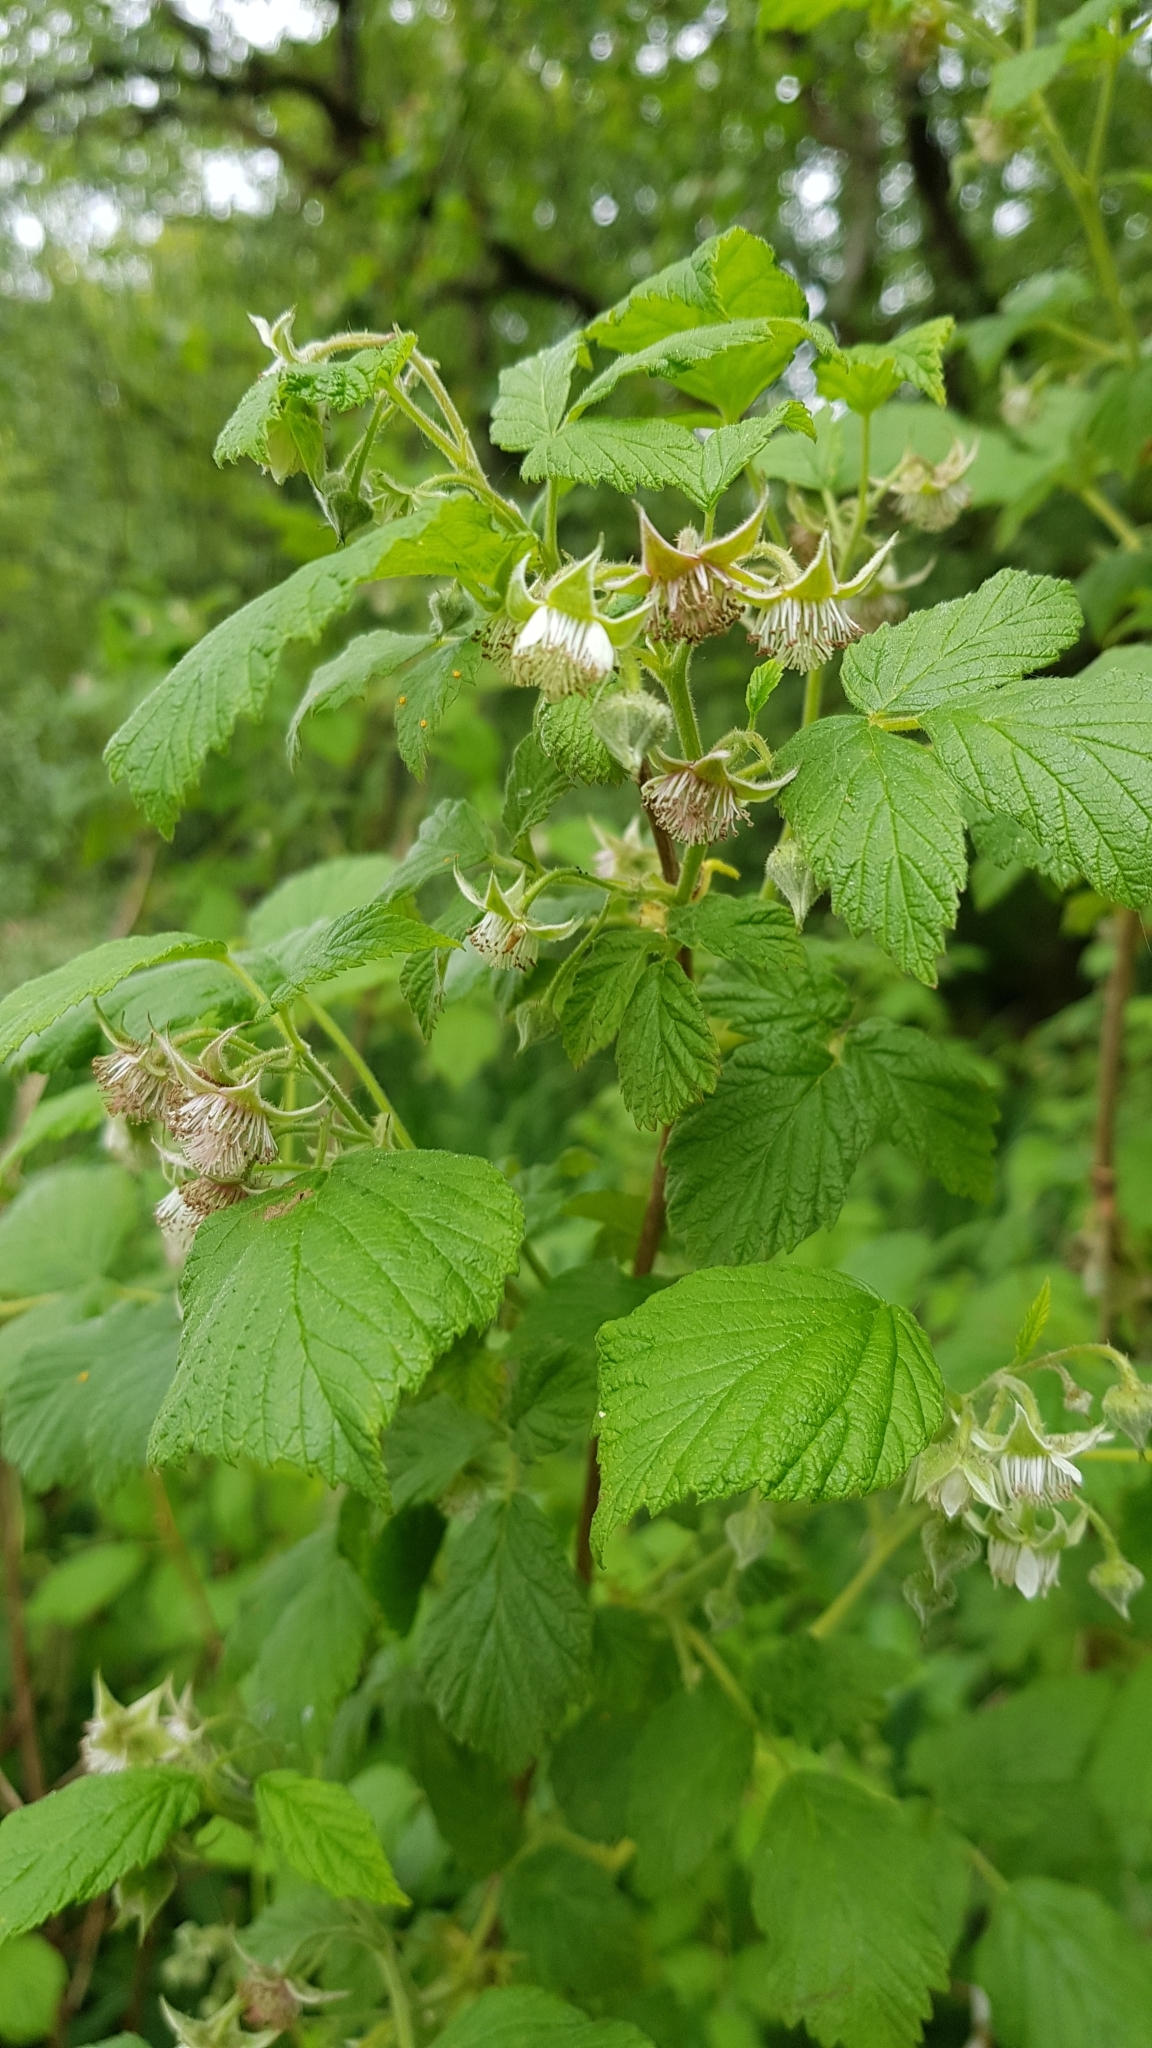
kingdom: Plantae
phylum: Tracheophyta
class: Magnoliopsida
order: Rosales
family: Rosaceae
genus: Rubus
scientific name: Rubus idaeus
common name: Raspberry
